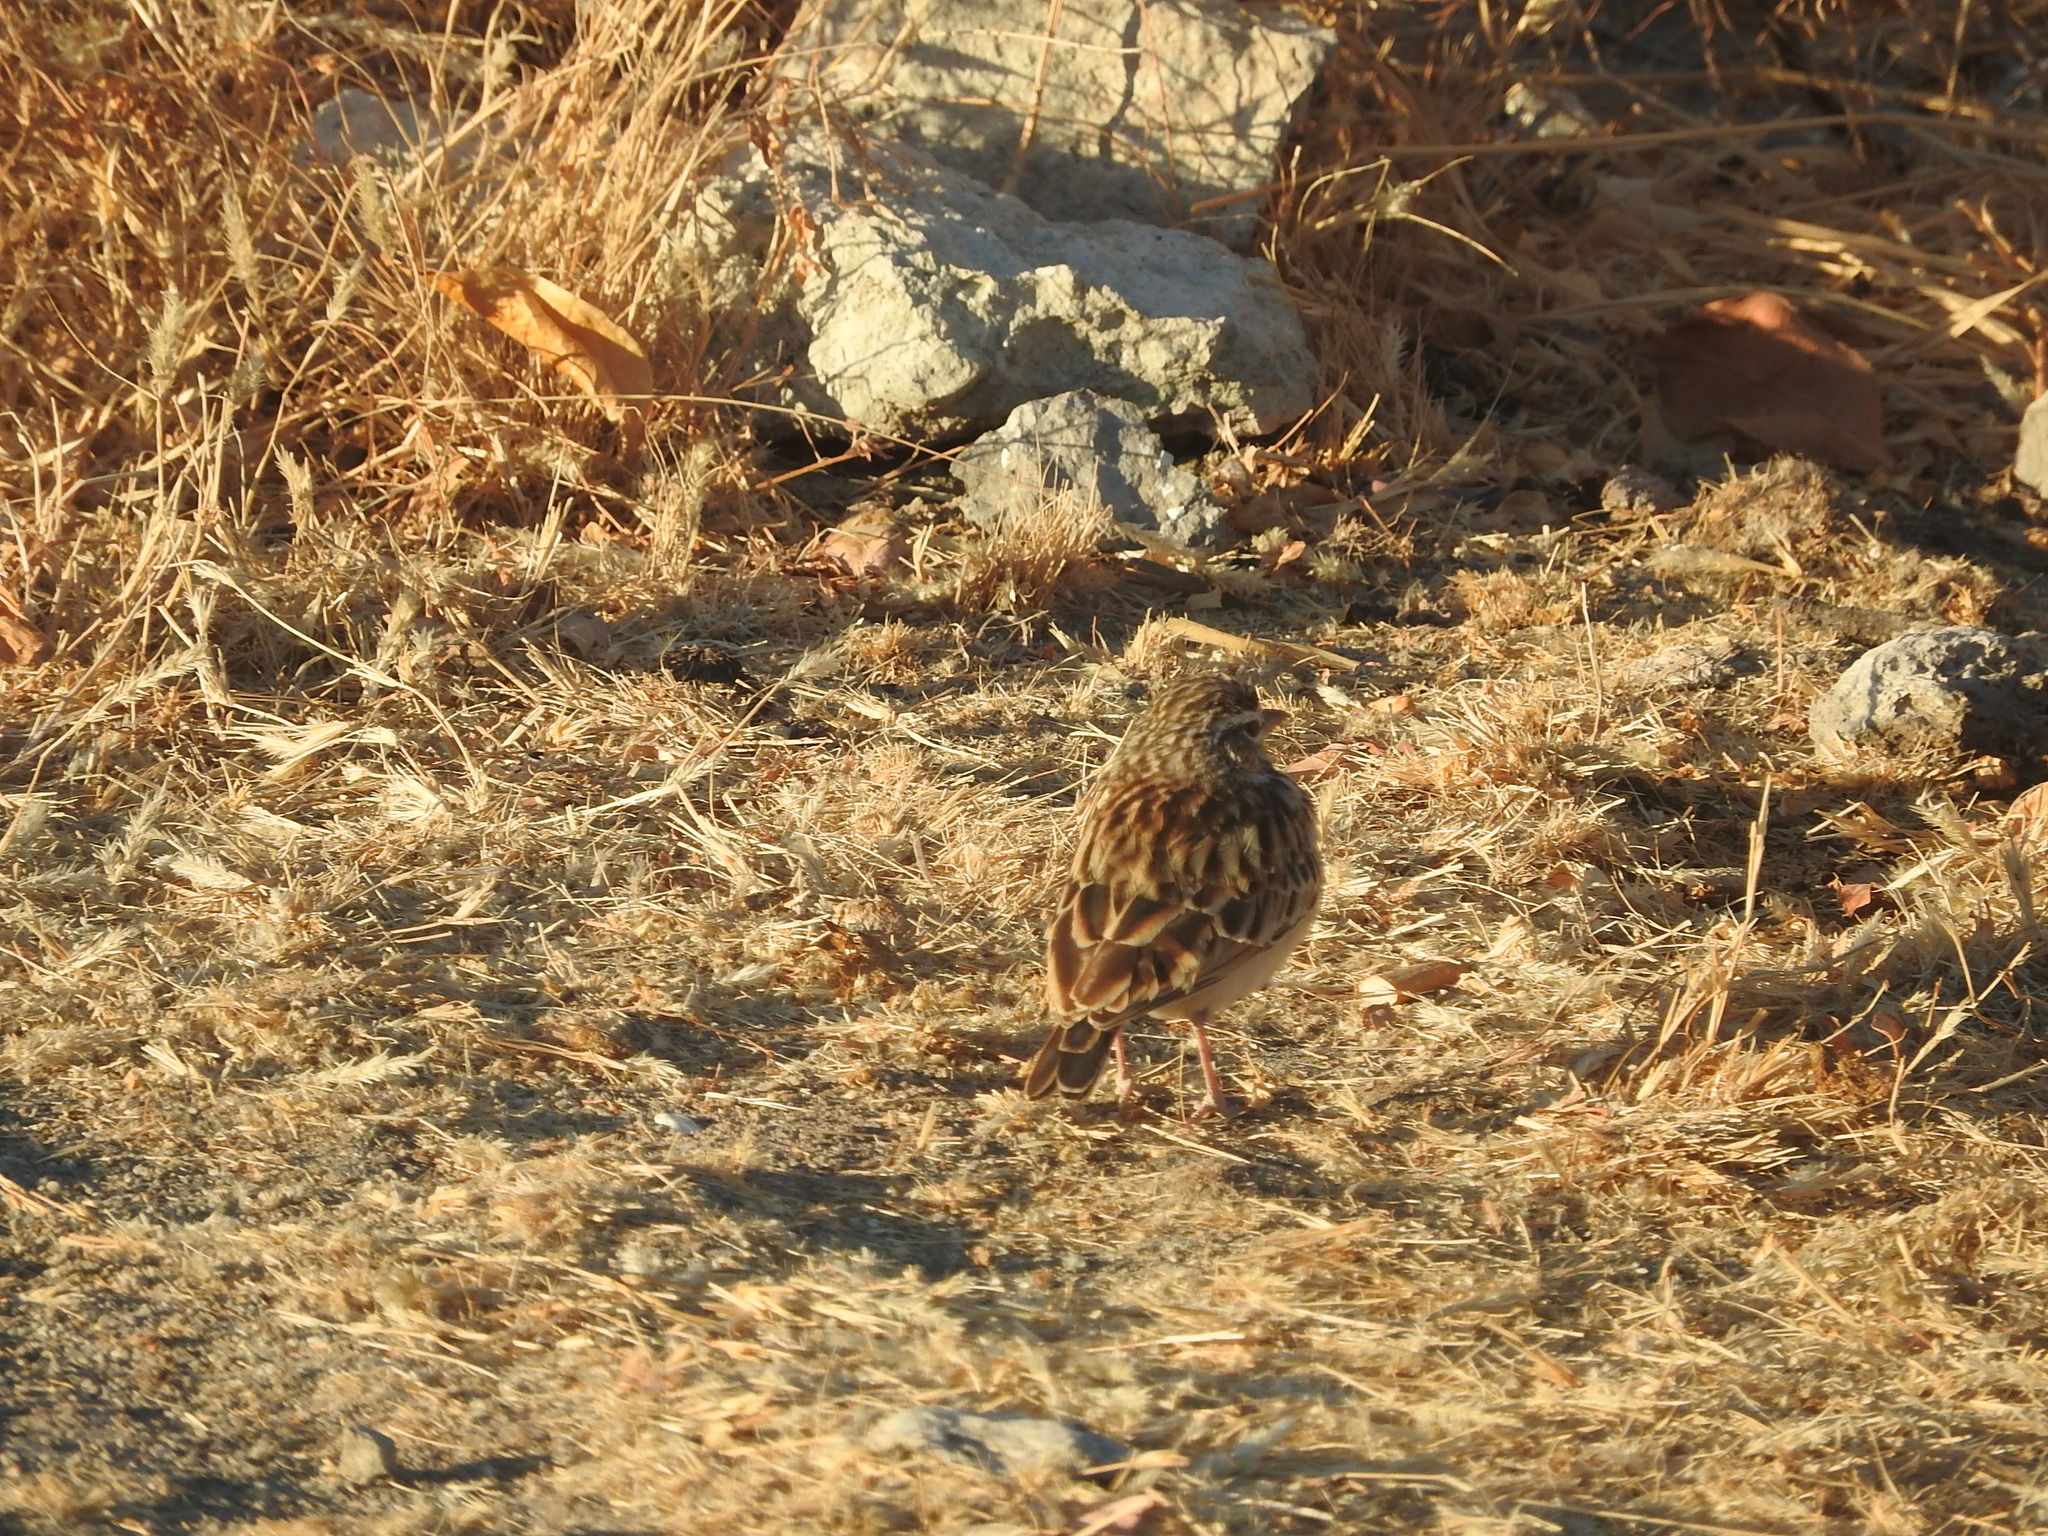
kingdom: Animalia
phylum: Chordata
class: Aves
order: Passeriformes
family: Alaudidae
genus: Calendulauda
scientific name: Calendulauda sabota
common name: Sabota lark
